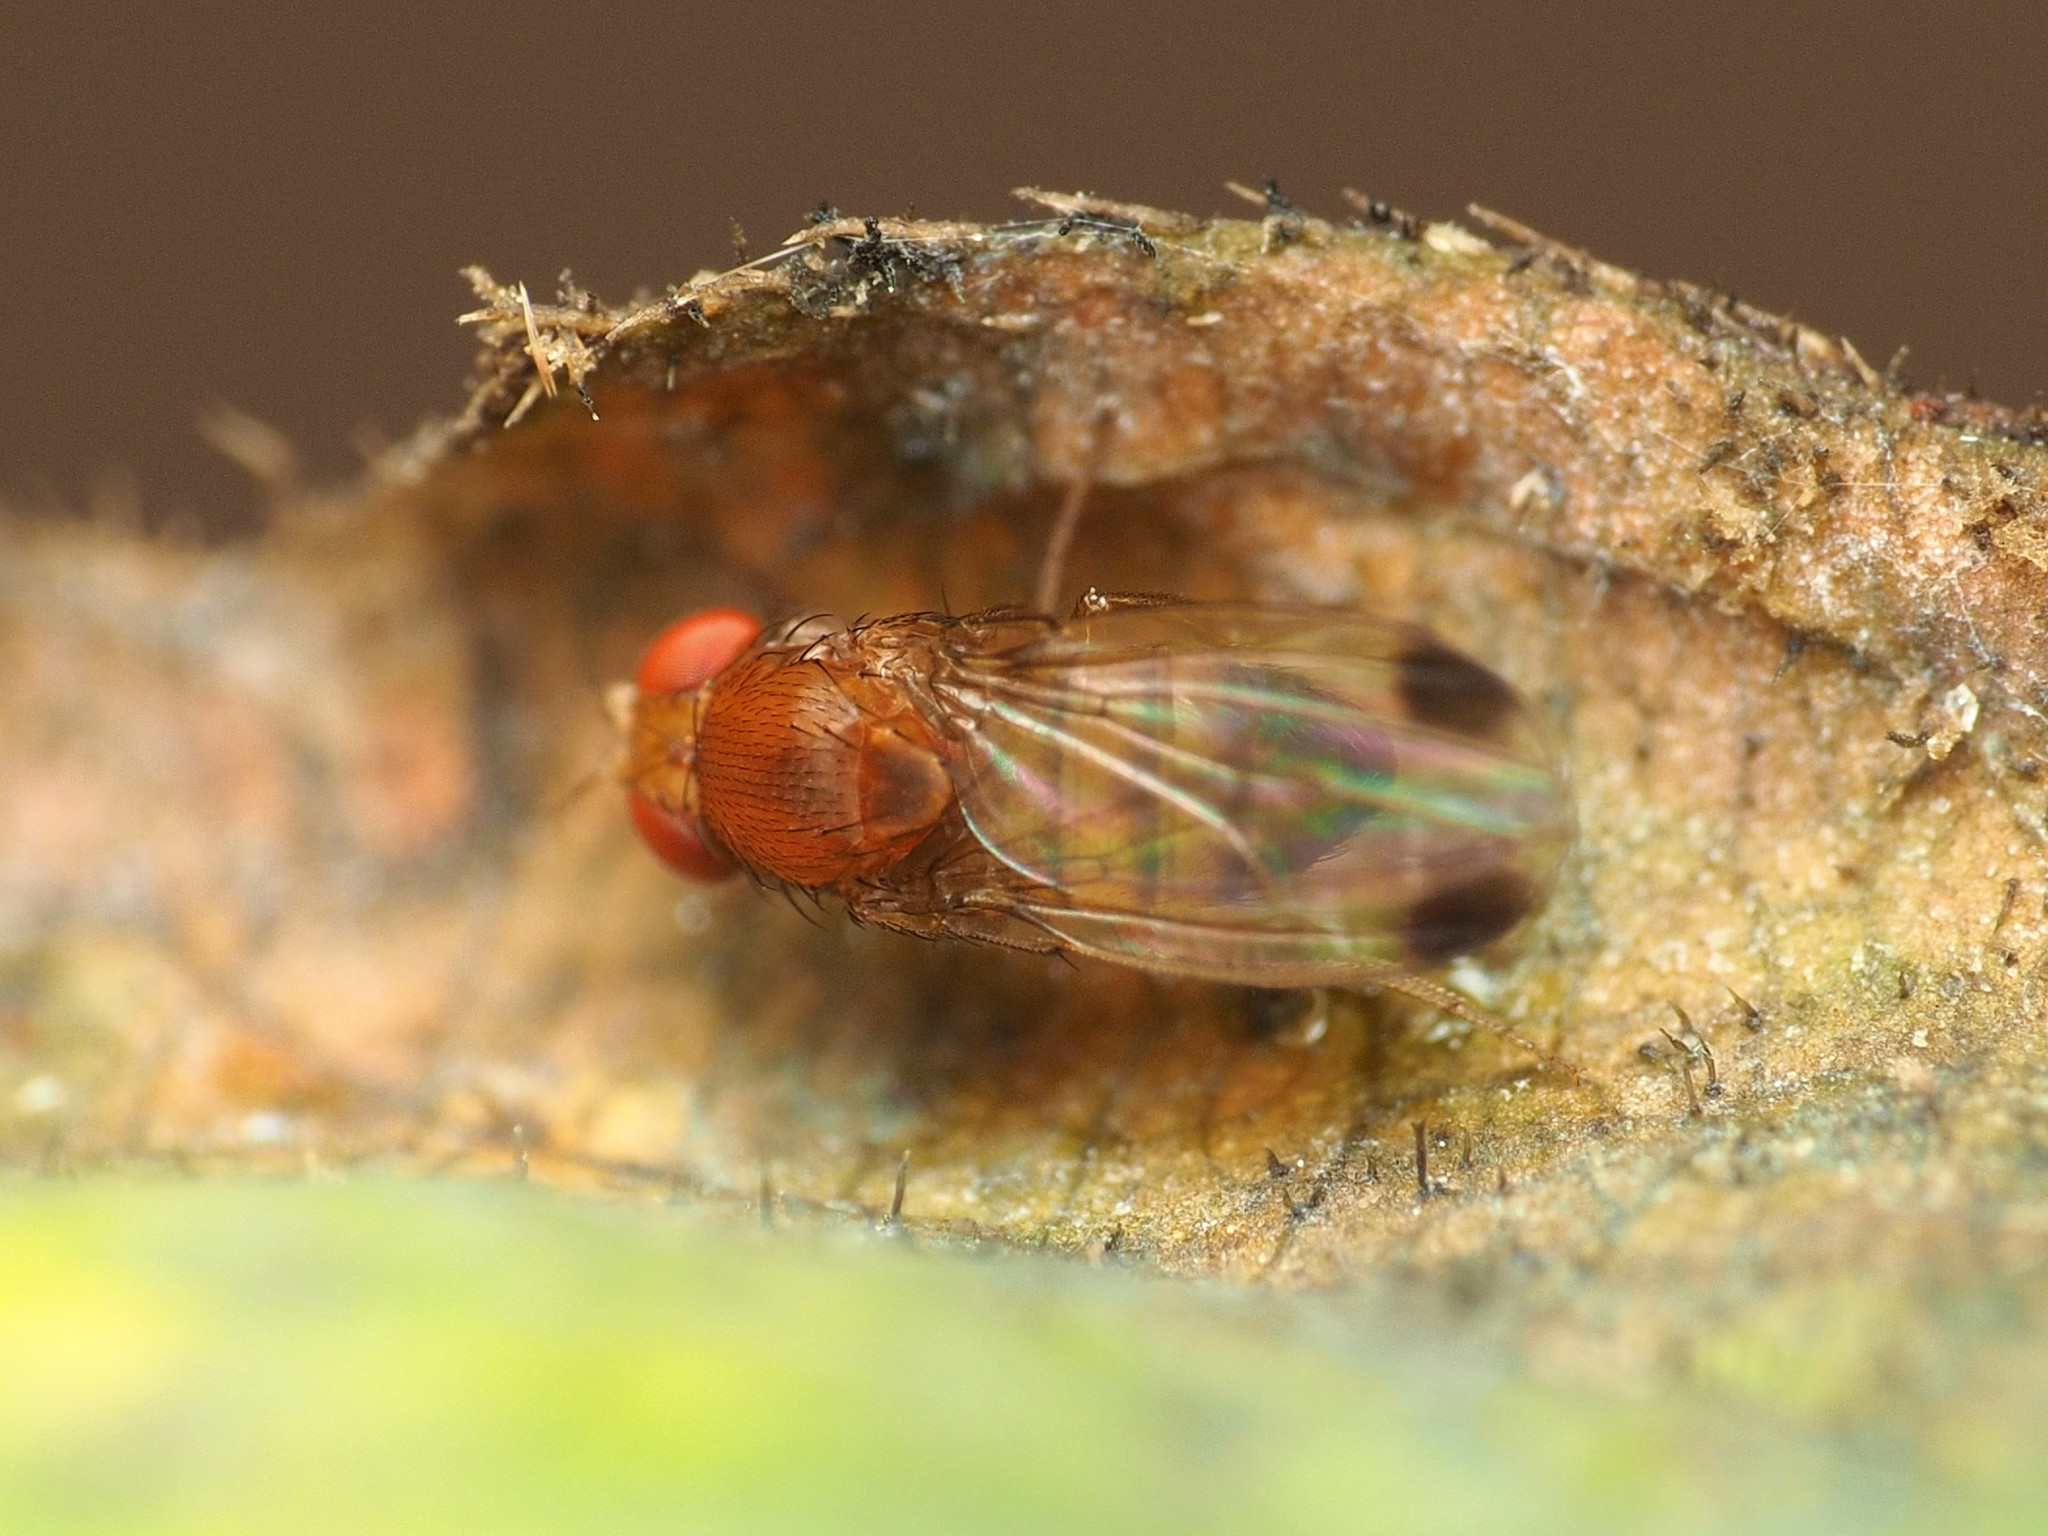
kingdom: Animalia
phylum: Arthropoda
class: Insecta
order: Diptera
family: Drosophilidae
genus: Drosophila
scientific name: Drosophila suzukii
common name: Spotted-wing drosophila
